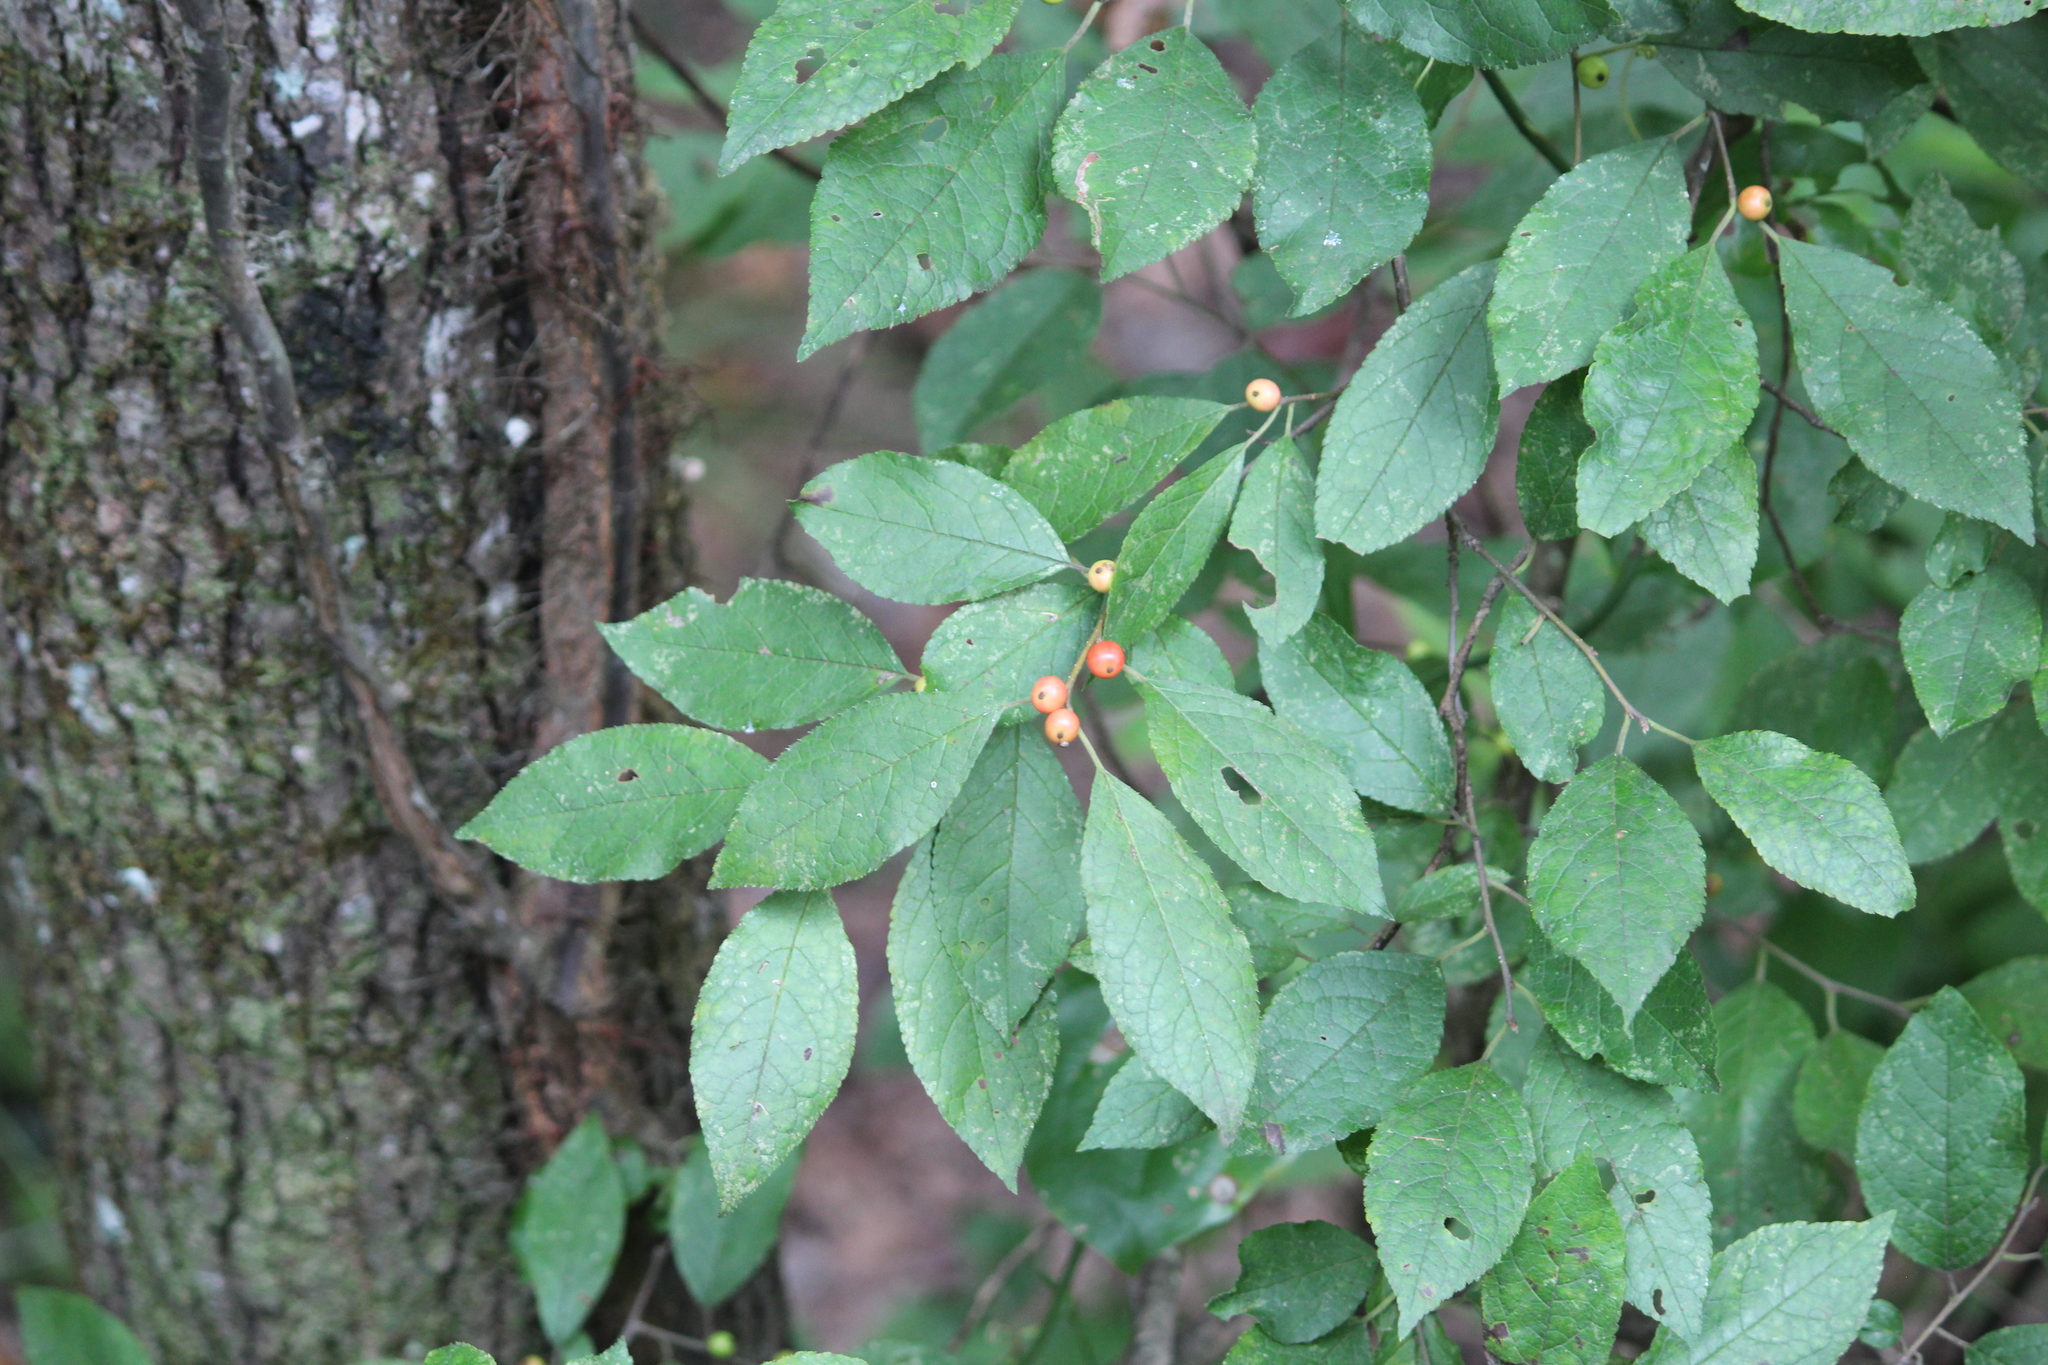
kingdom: Plantae
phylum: Tracheophyta
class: Magnoliopsida
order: Aquifoliales
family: Aquifoliaceae
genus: Ilex
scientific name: Ilex verticillata
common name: Virginia winterberry
